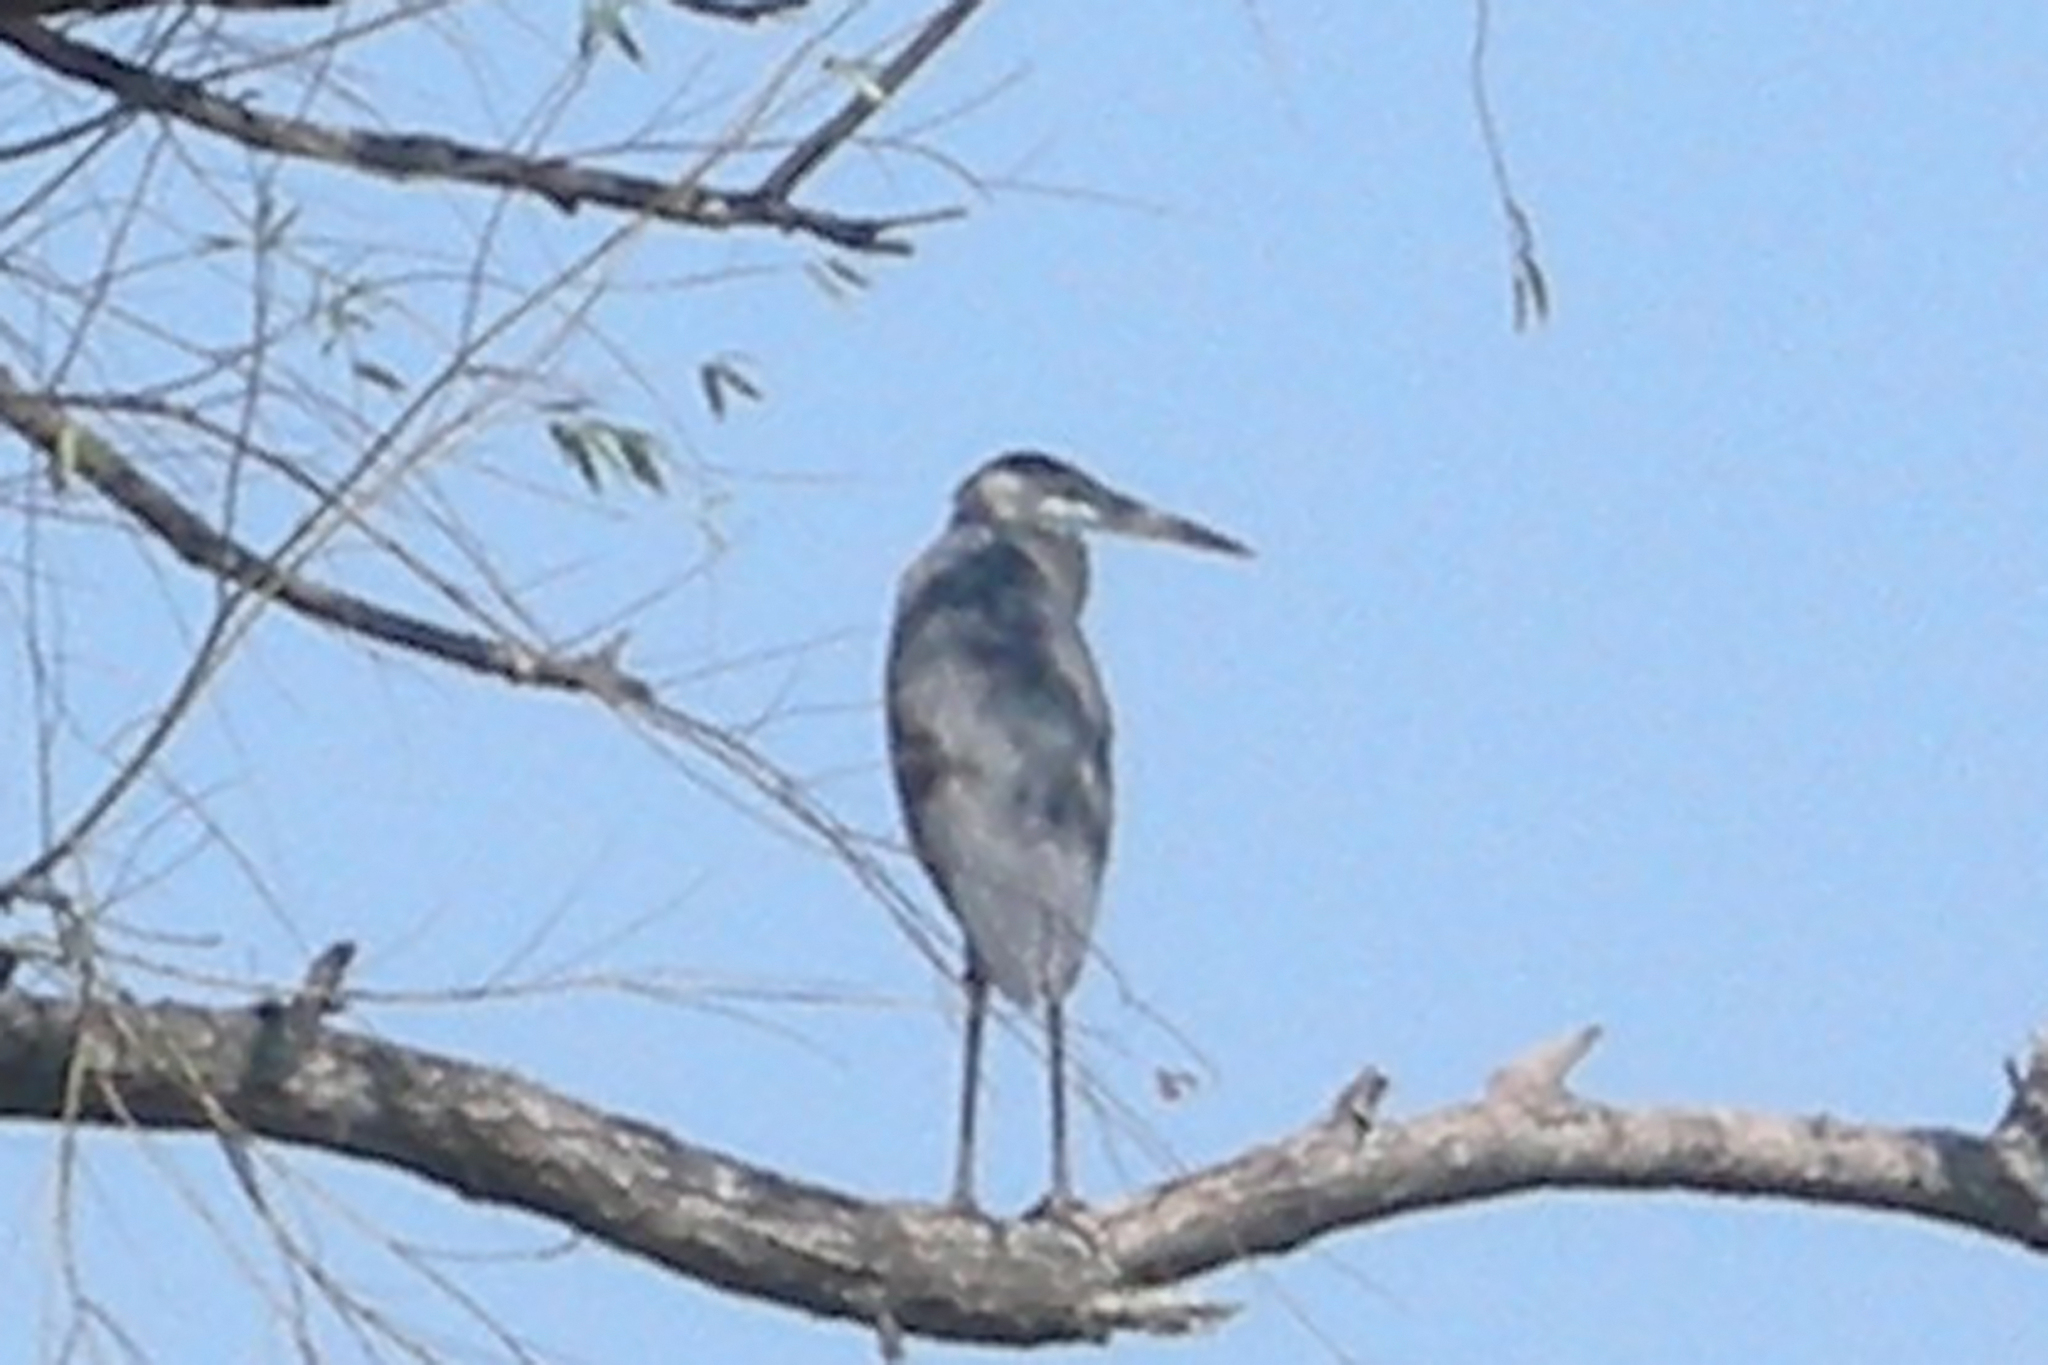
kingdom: Animalia
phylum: Chordata
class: Aves
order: Pelecaniformes
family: Ardeidae
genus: Ardea
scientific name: Ardea herodias
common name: Great blue heron
